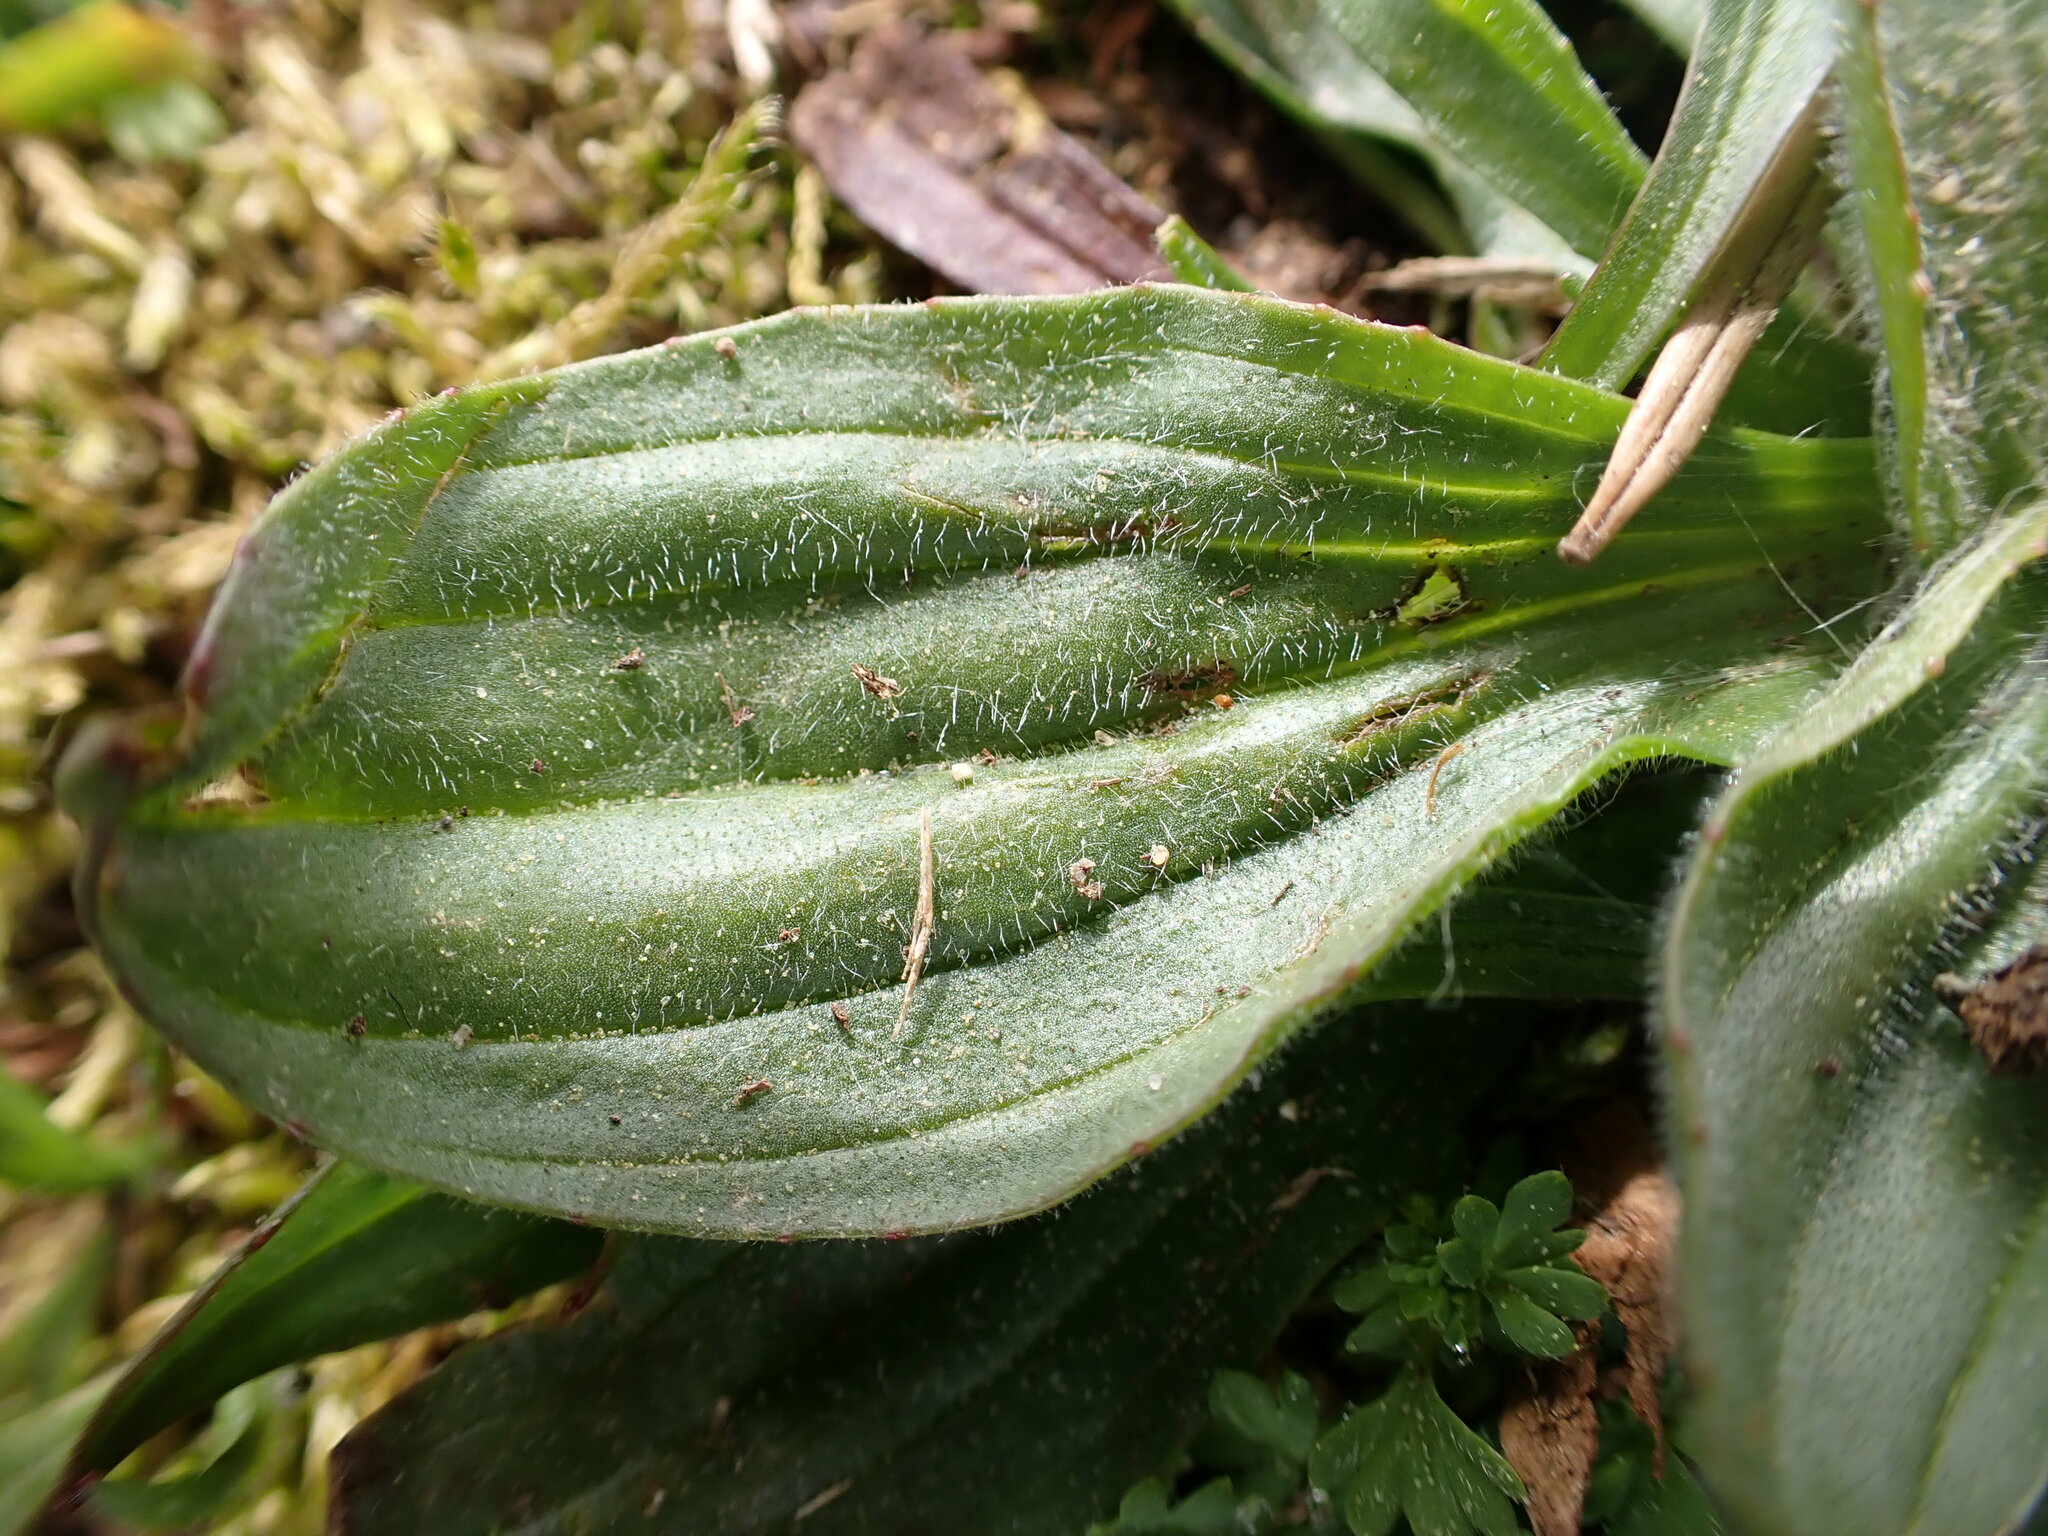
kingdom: Plantae
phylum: Tracheophyta
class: Magnoliopsida
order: Lamiales
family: Plantaginaceae
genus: Plantago
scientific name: Plantago major
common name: Common plantain
